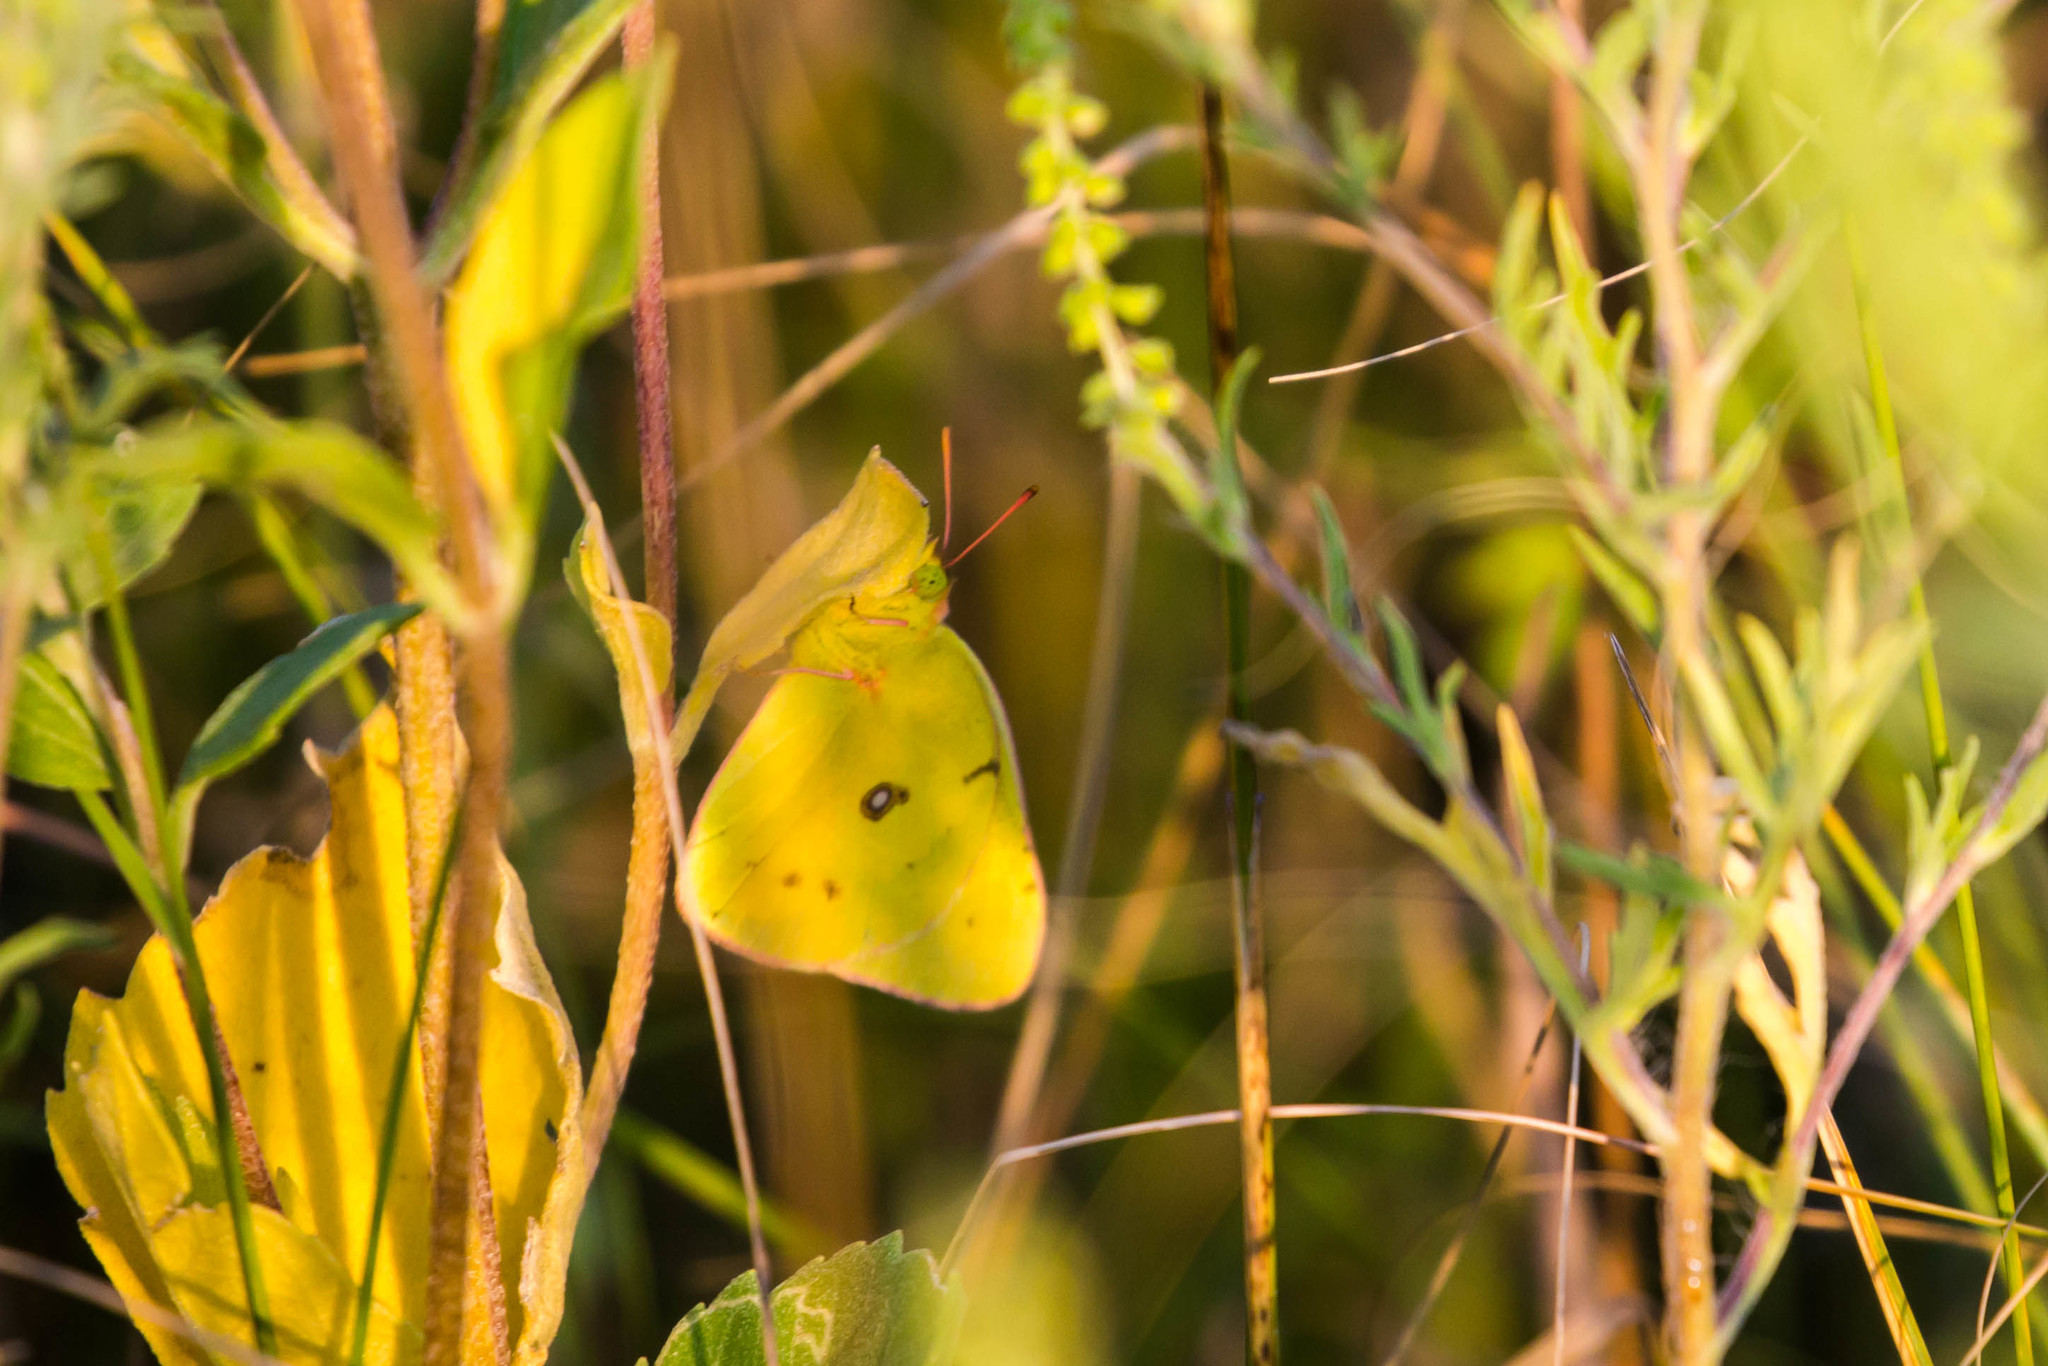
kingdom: Animalia
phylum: Arthropoda
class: Insecta
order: Lepidoptera
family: Pieridae
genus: Colias
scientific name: Colias philodice
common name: Clouded sulphur
